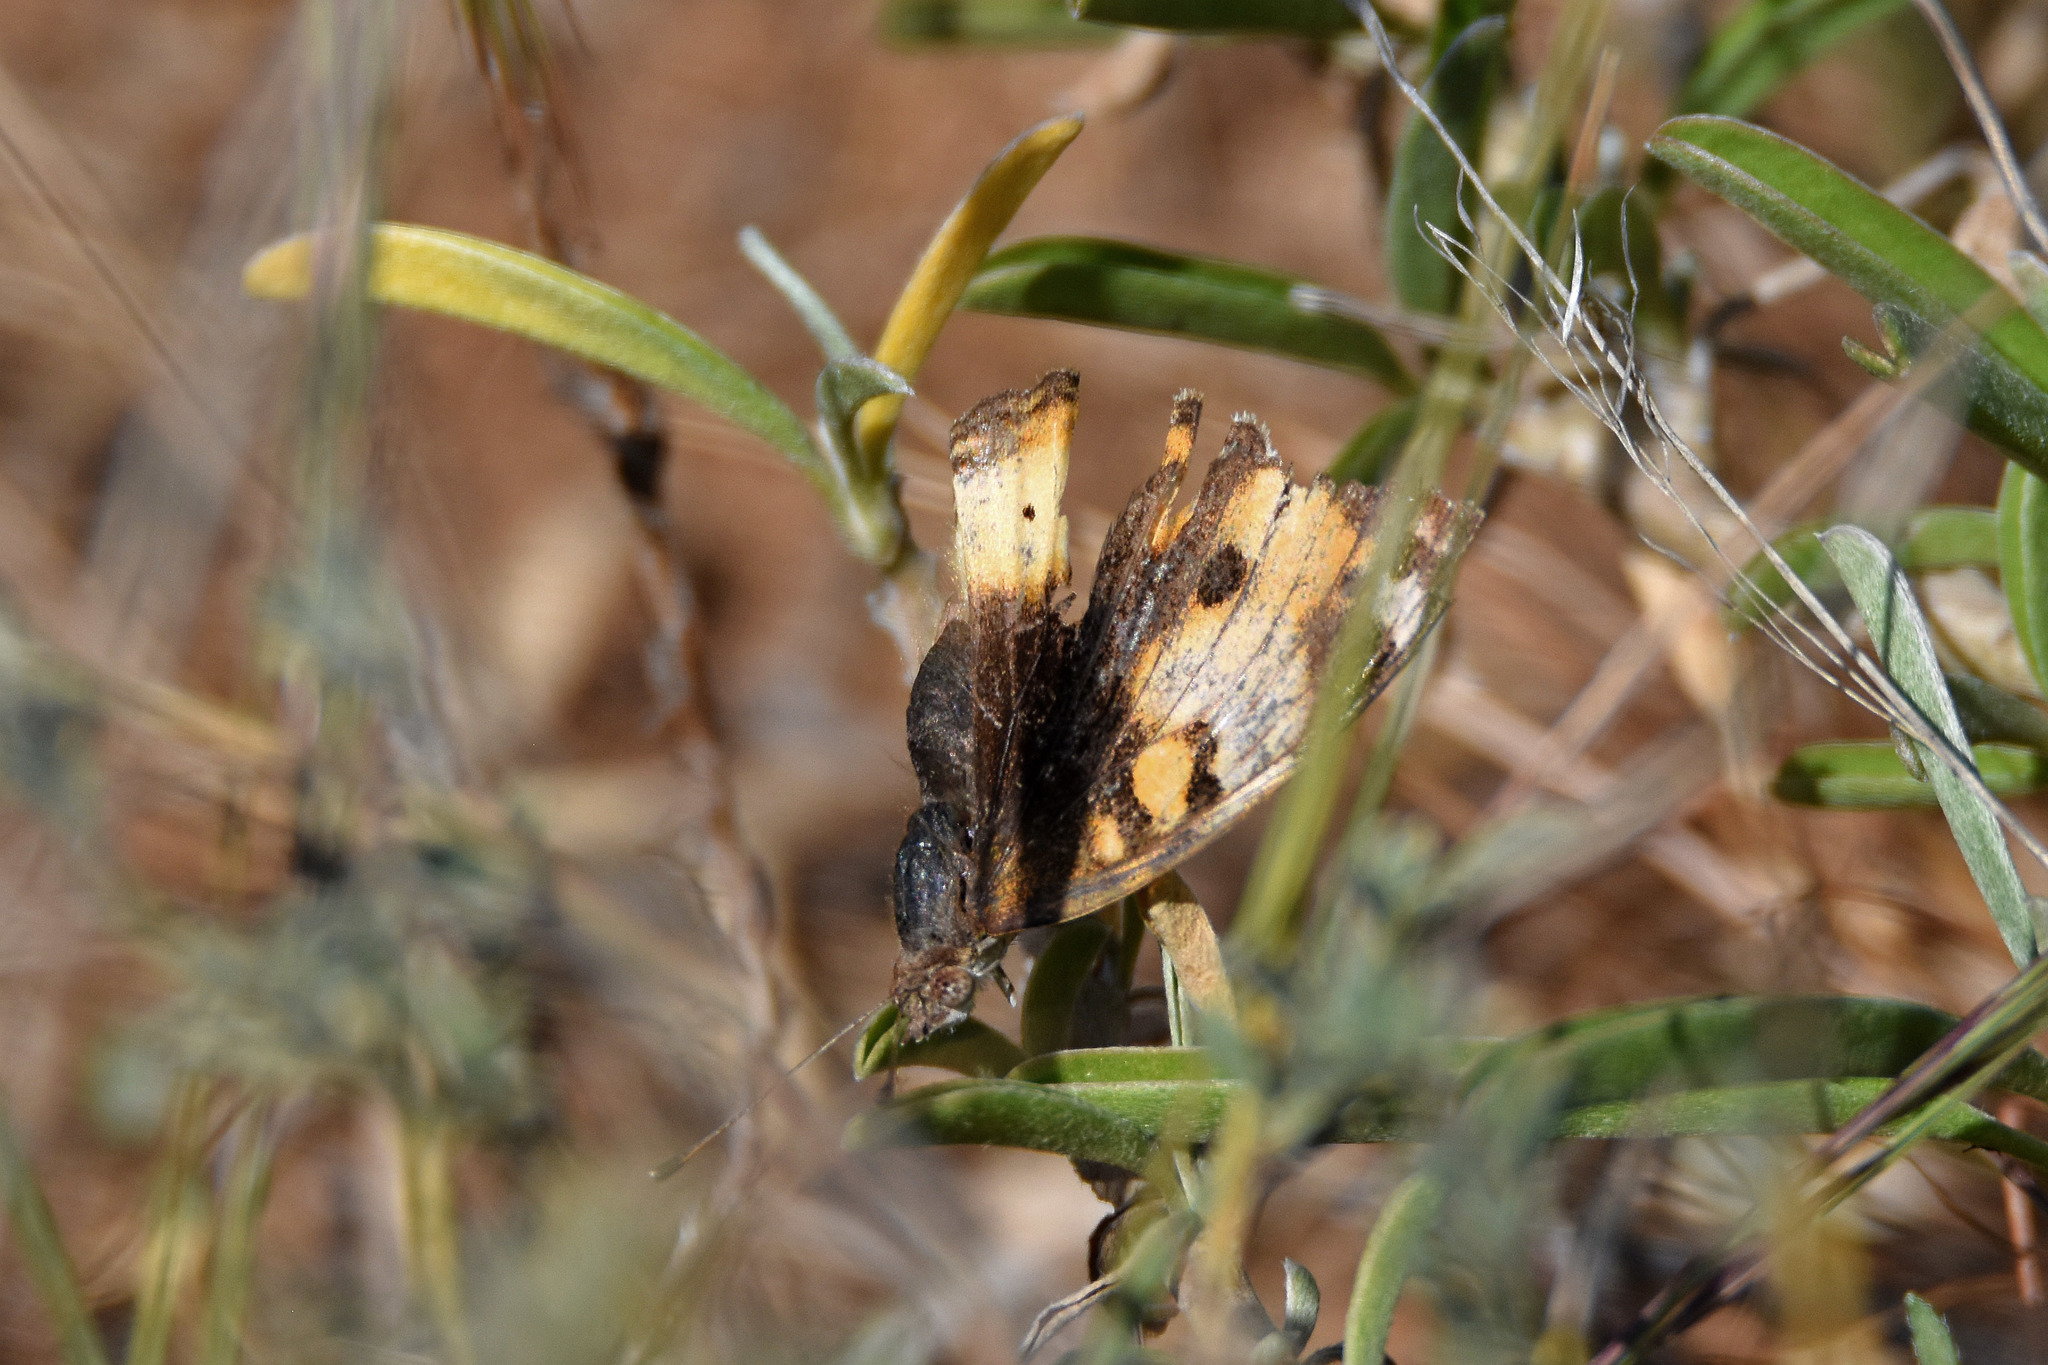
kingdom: Animalia
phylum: Arthropoda
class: Insecta
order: Lepidoptera
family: Nymphalidae
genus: Junonia
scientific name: Junonia hierta
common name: Yellow pansy
